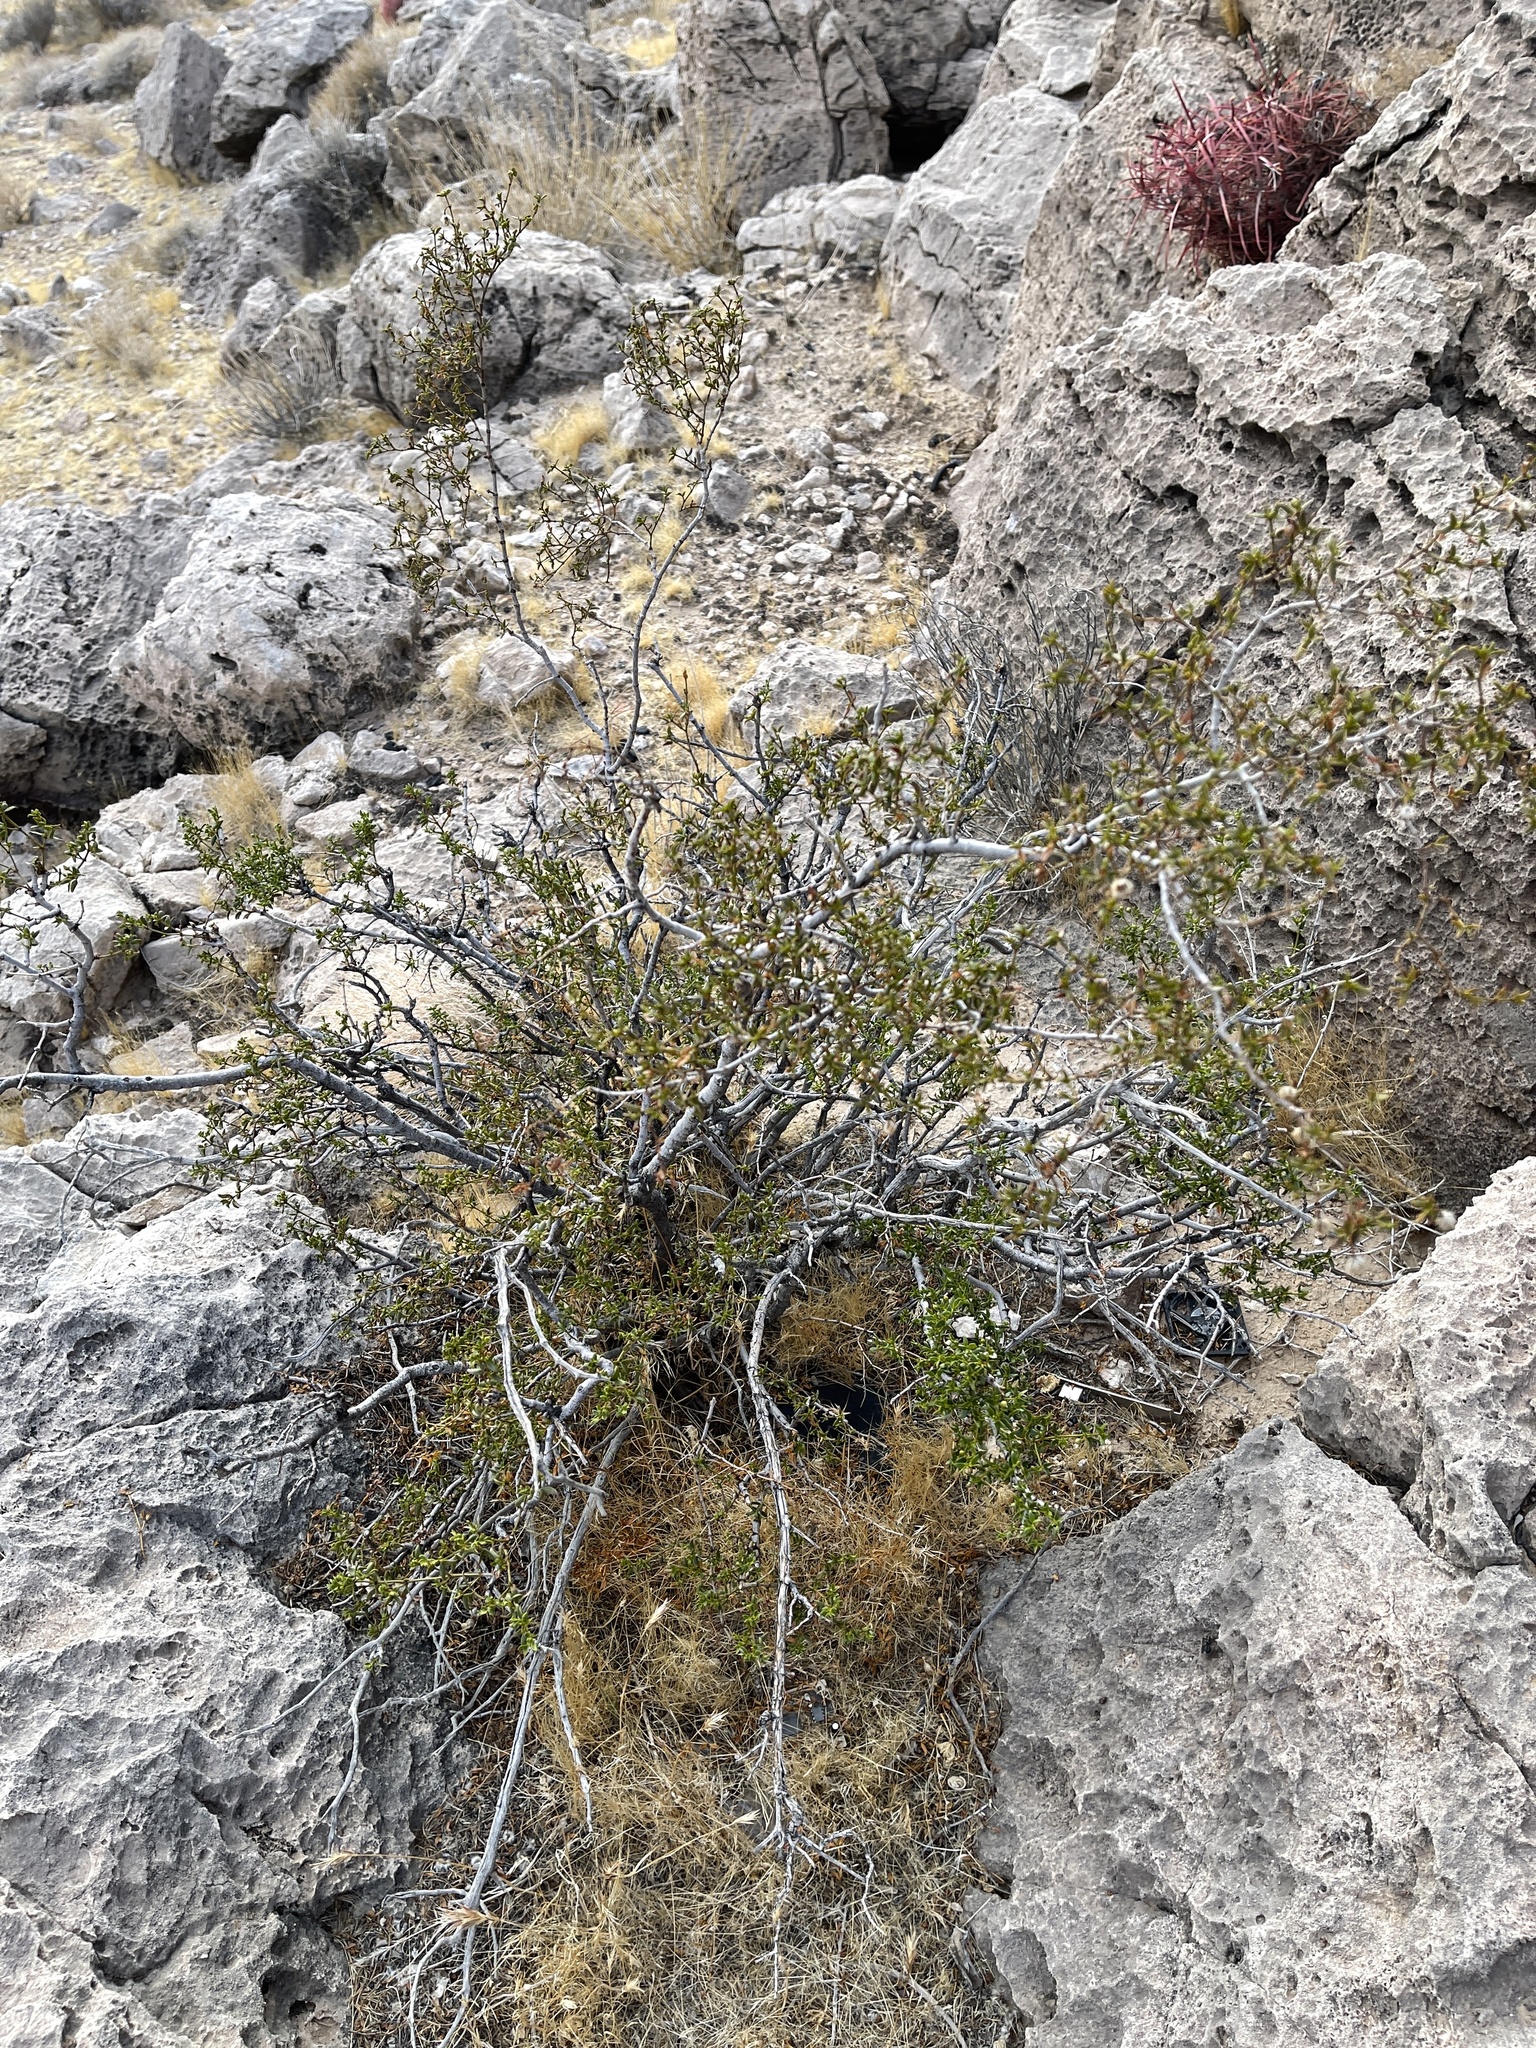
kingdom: Plantae
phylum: Tracheophyta
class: Magnoliopsida
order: Zygophyllales
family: Zygophyllaceae
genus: Larrea
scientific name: Larrea tridentata
